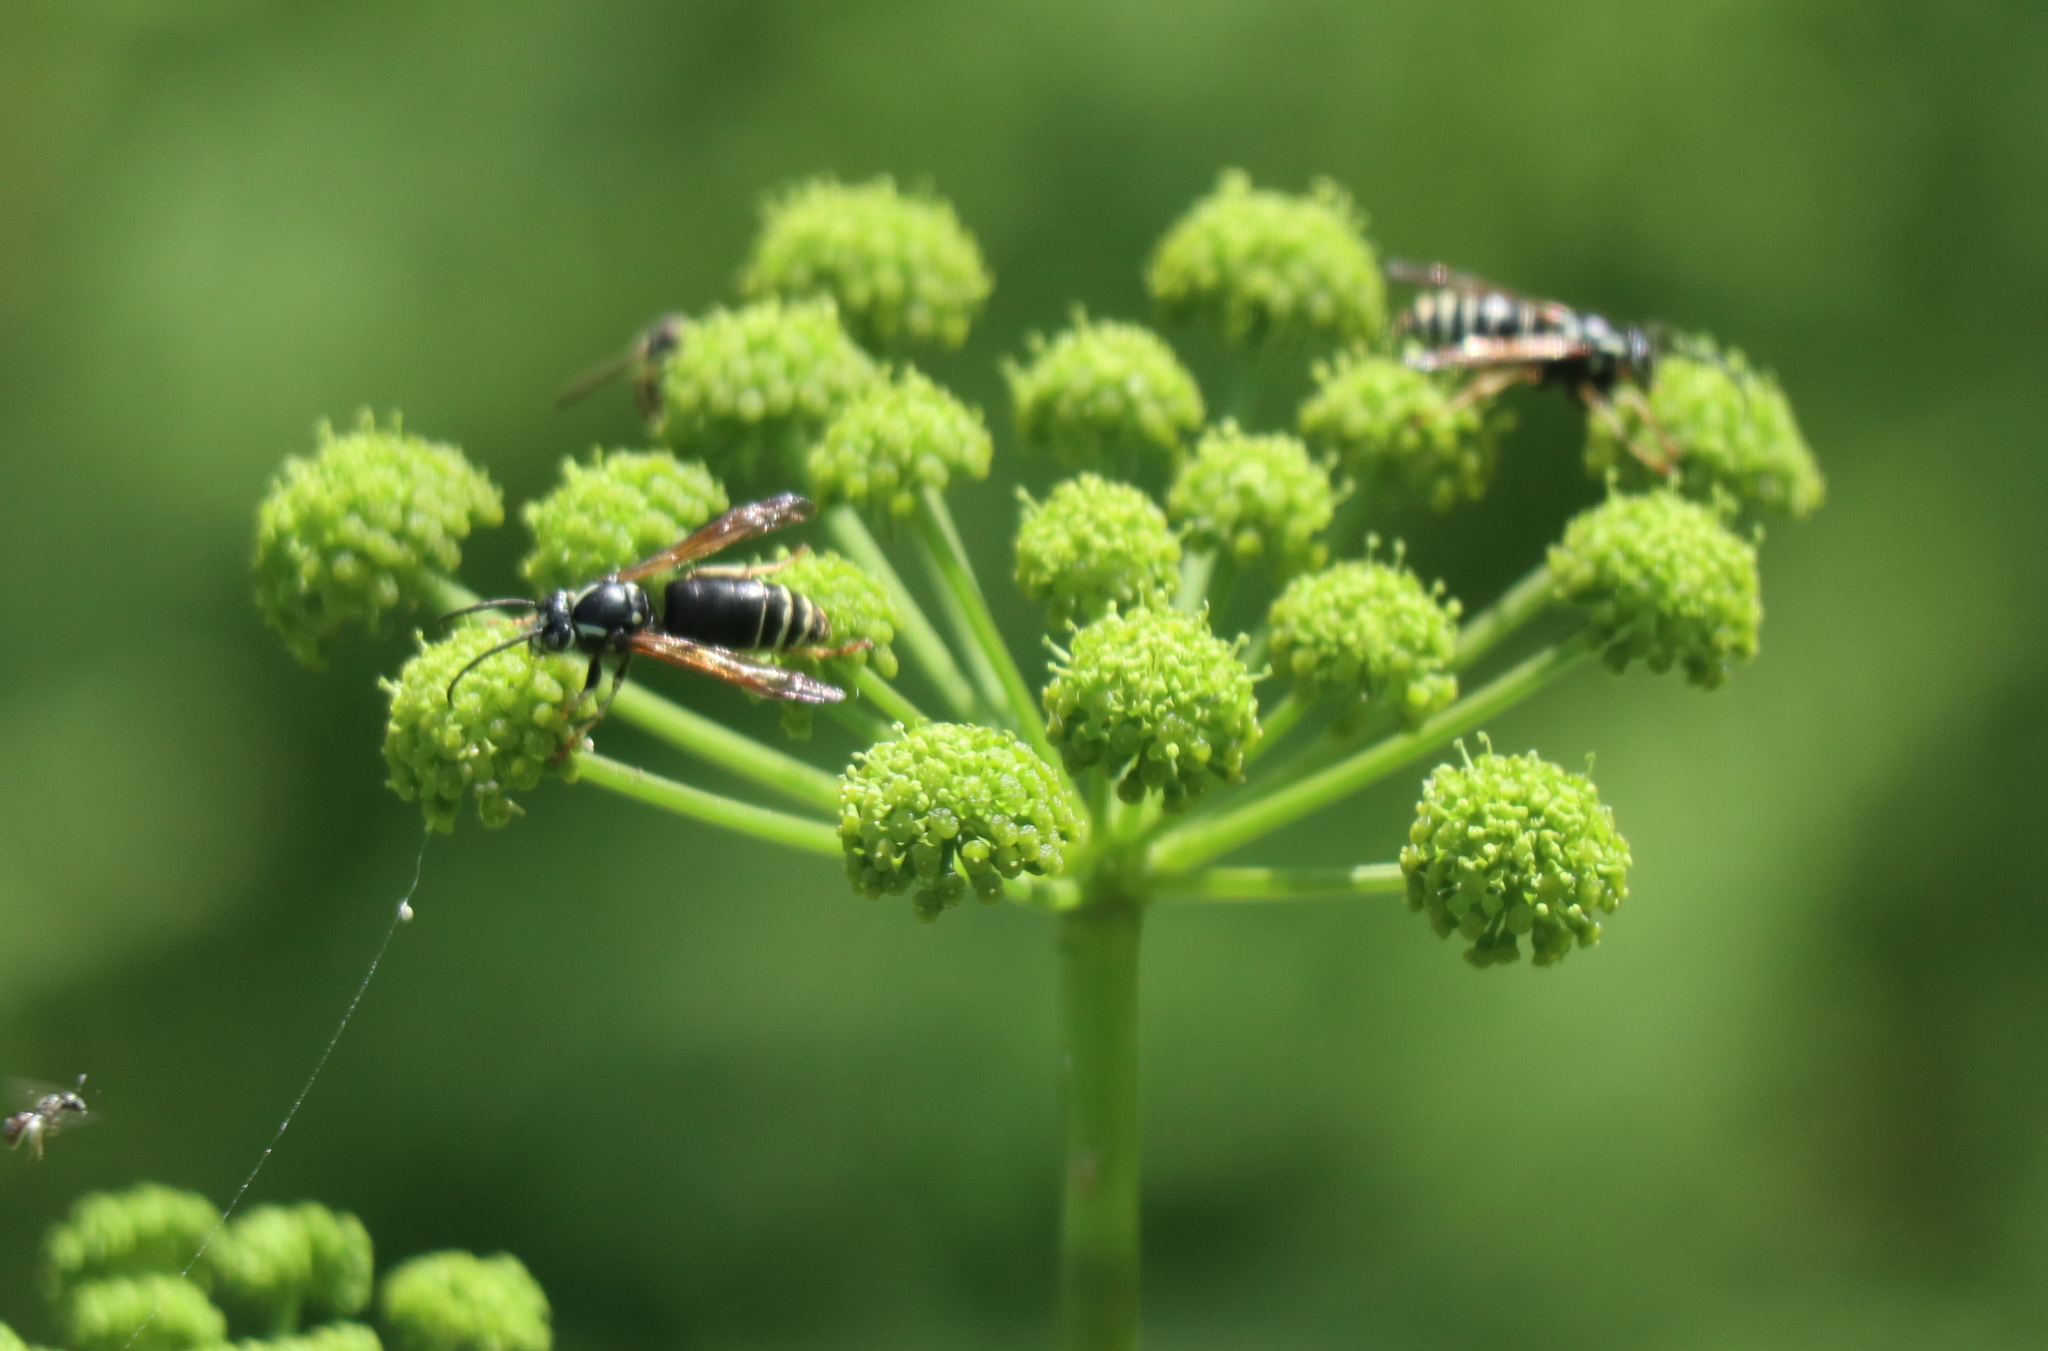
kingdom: Animalia
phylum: Arthropoda
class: Insecta
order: Hymenoptera
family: Vespidae
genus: Dolichovespula
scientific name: Dolichovespula adulterina
